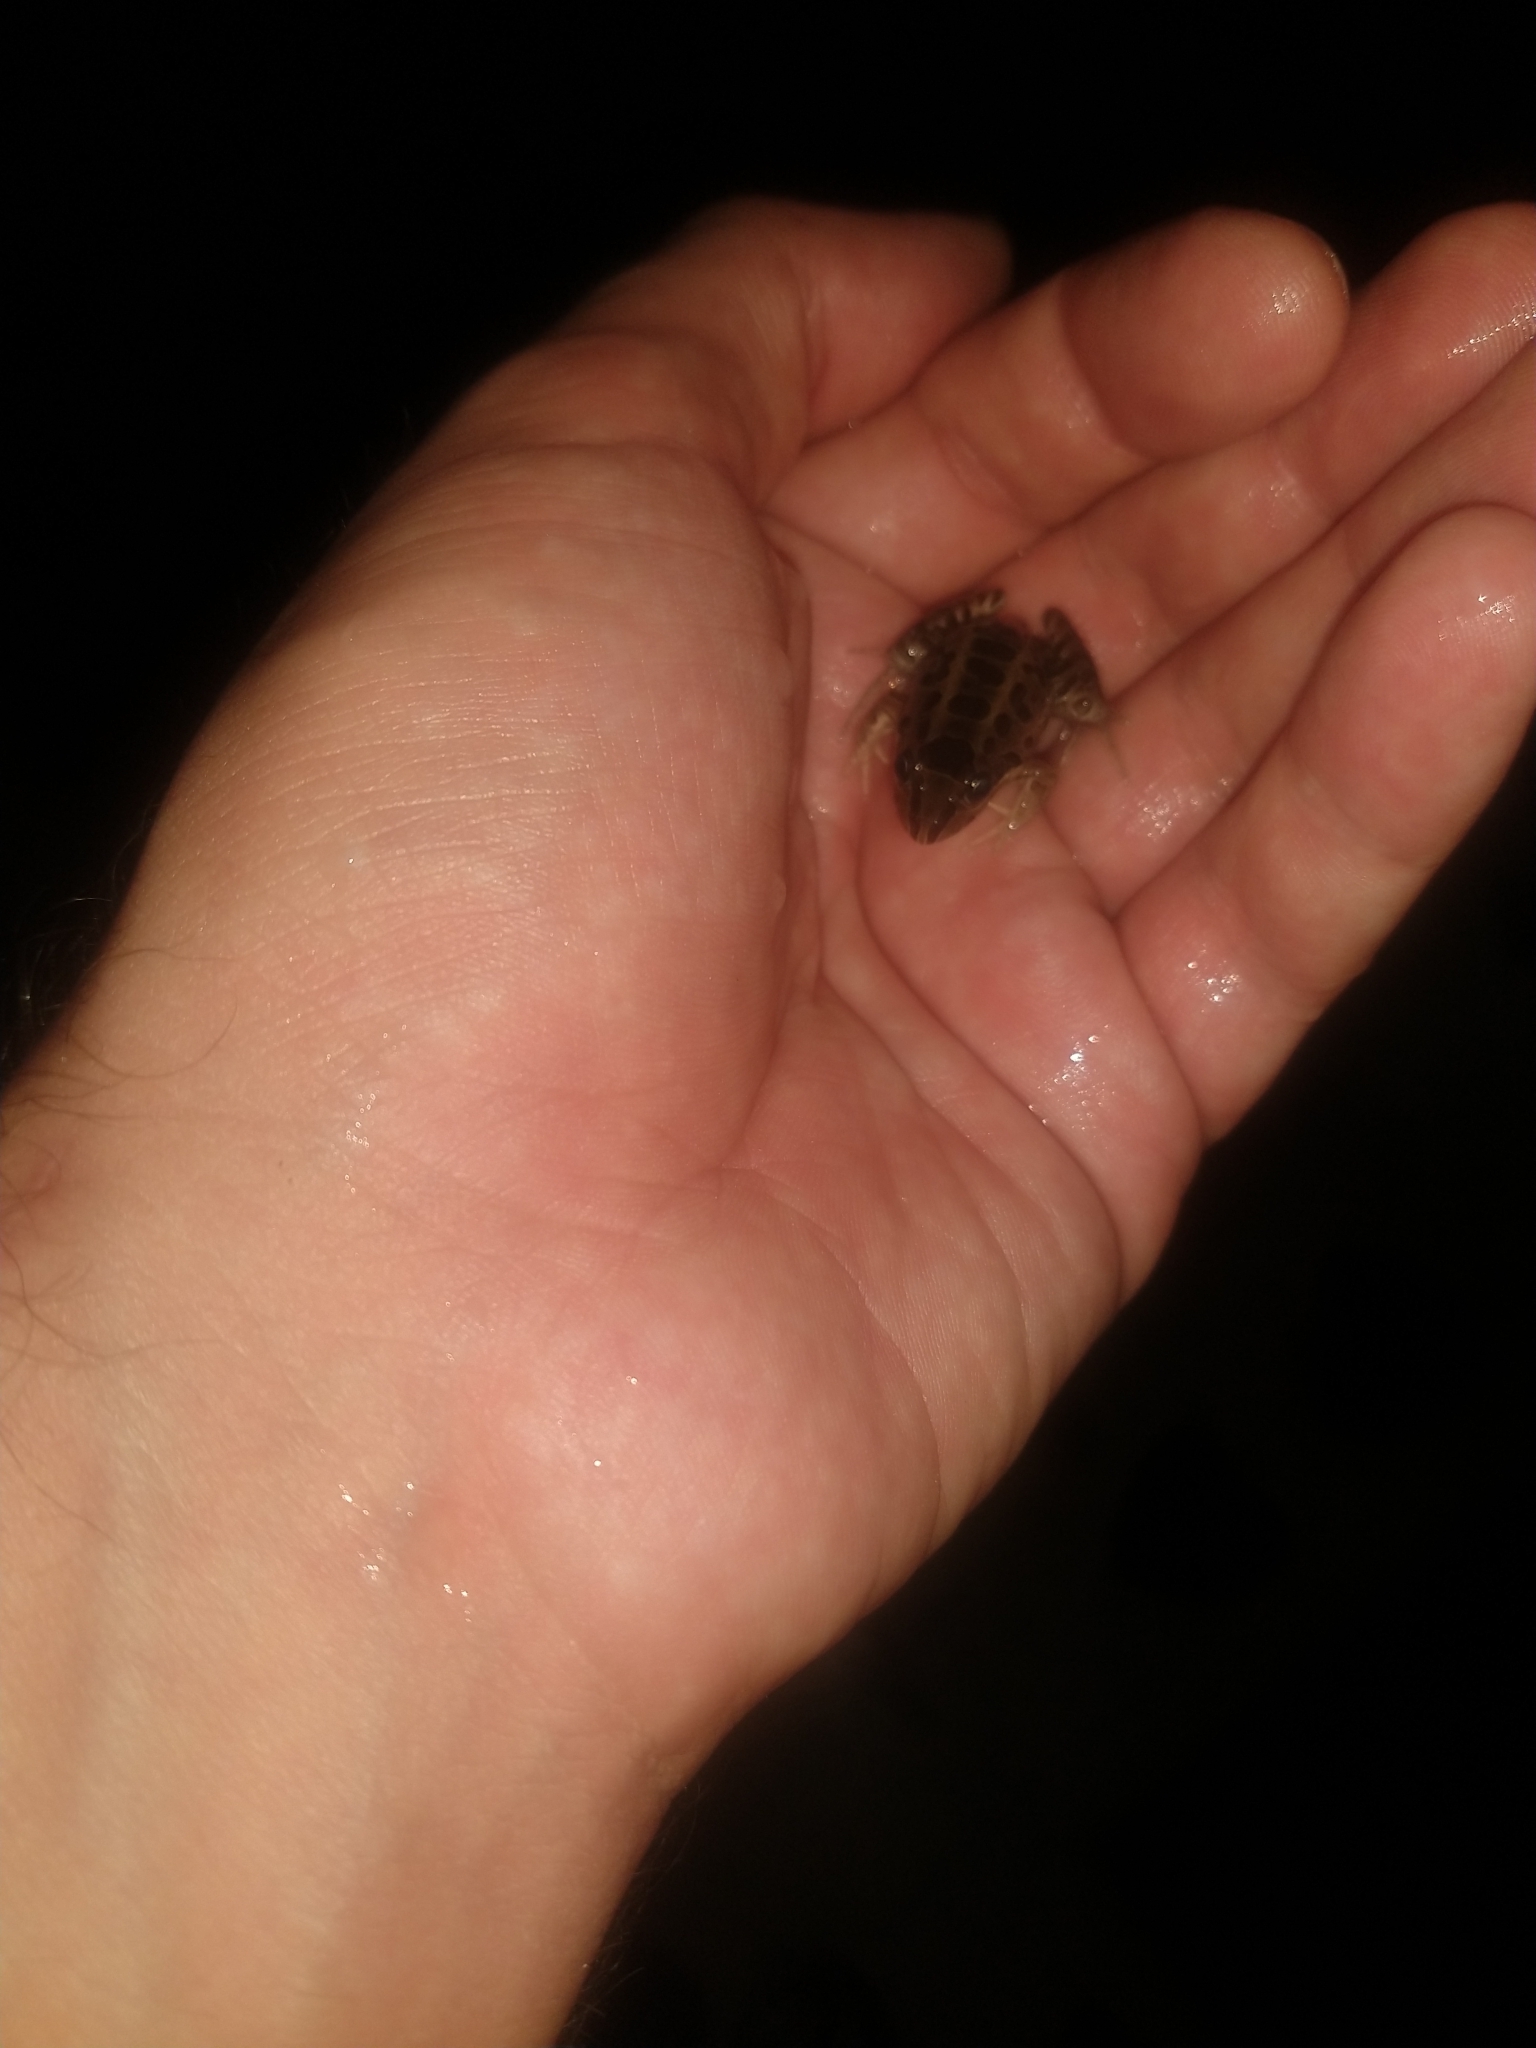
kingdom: Animalia
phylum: Chordata
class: Amphibia
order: Anura
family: Leptodactylidae
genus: Leptodactylus
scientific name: Leptodactylus luctator
